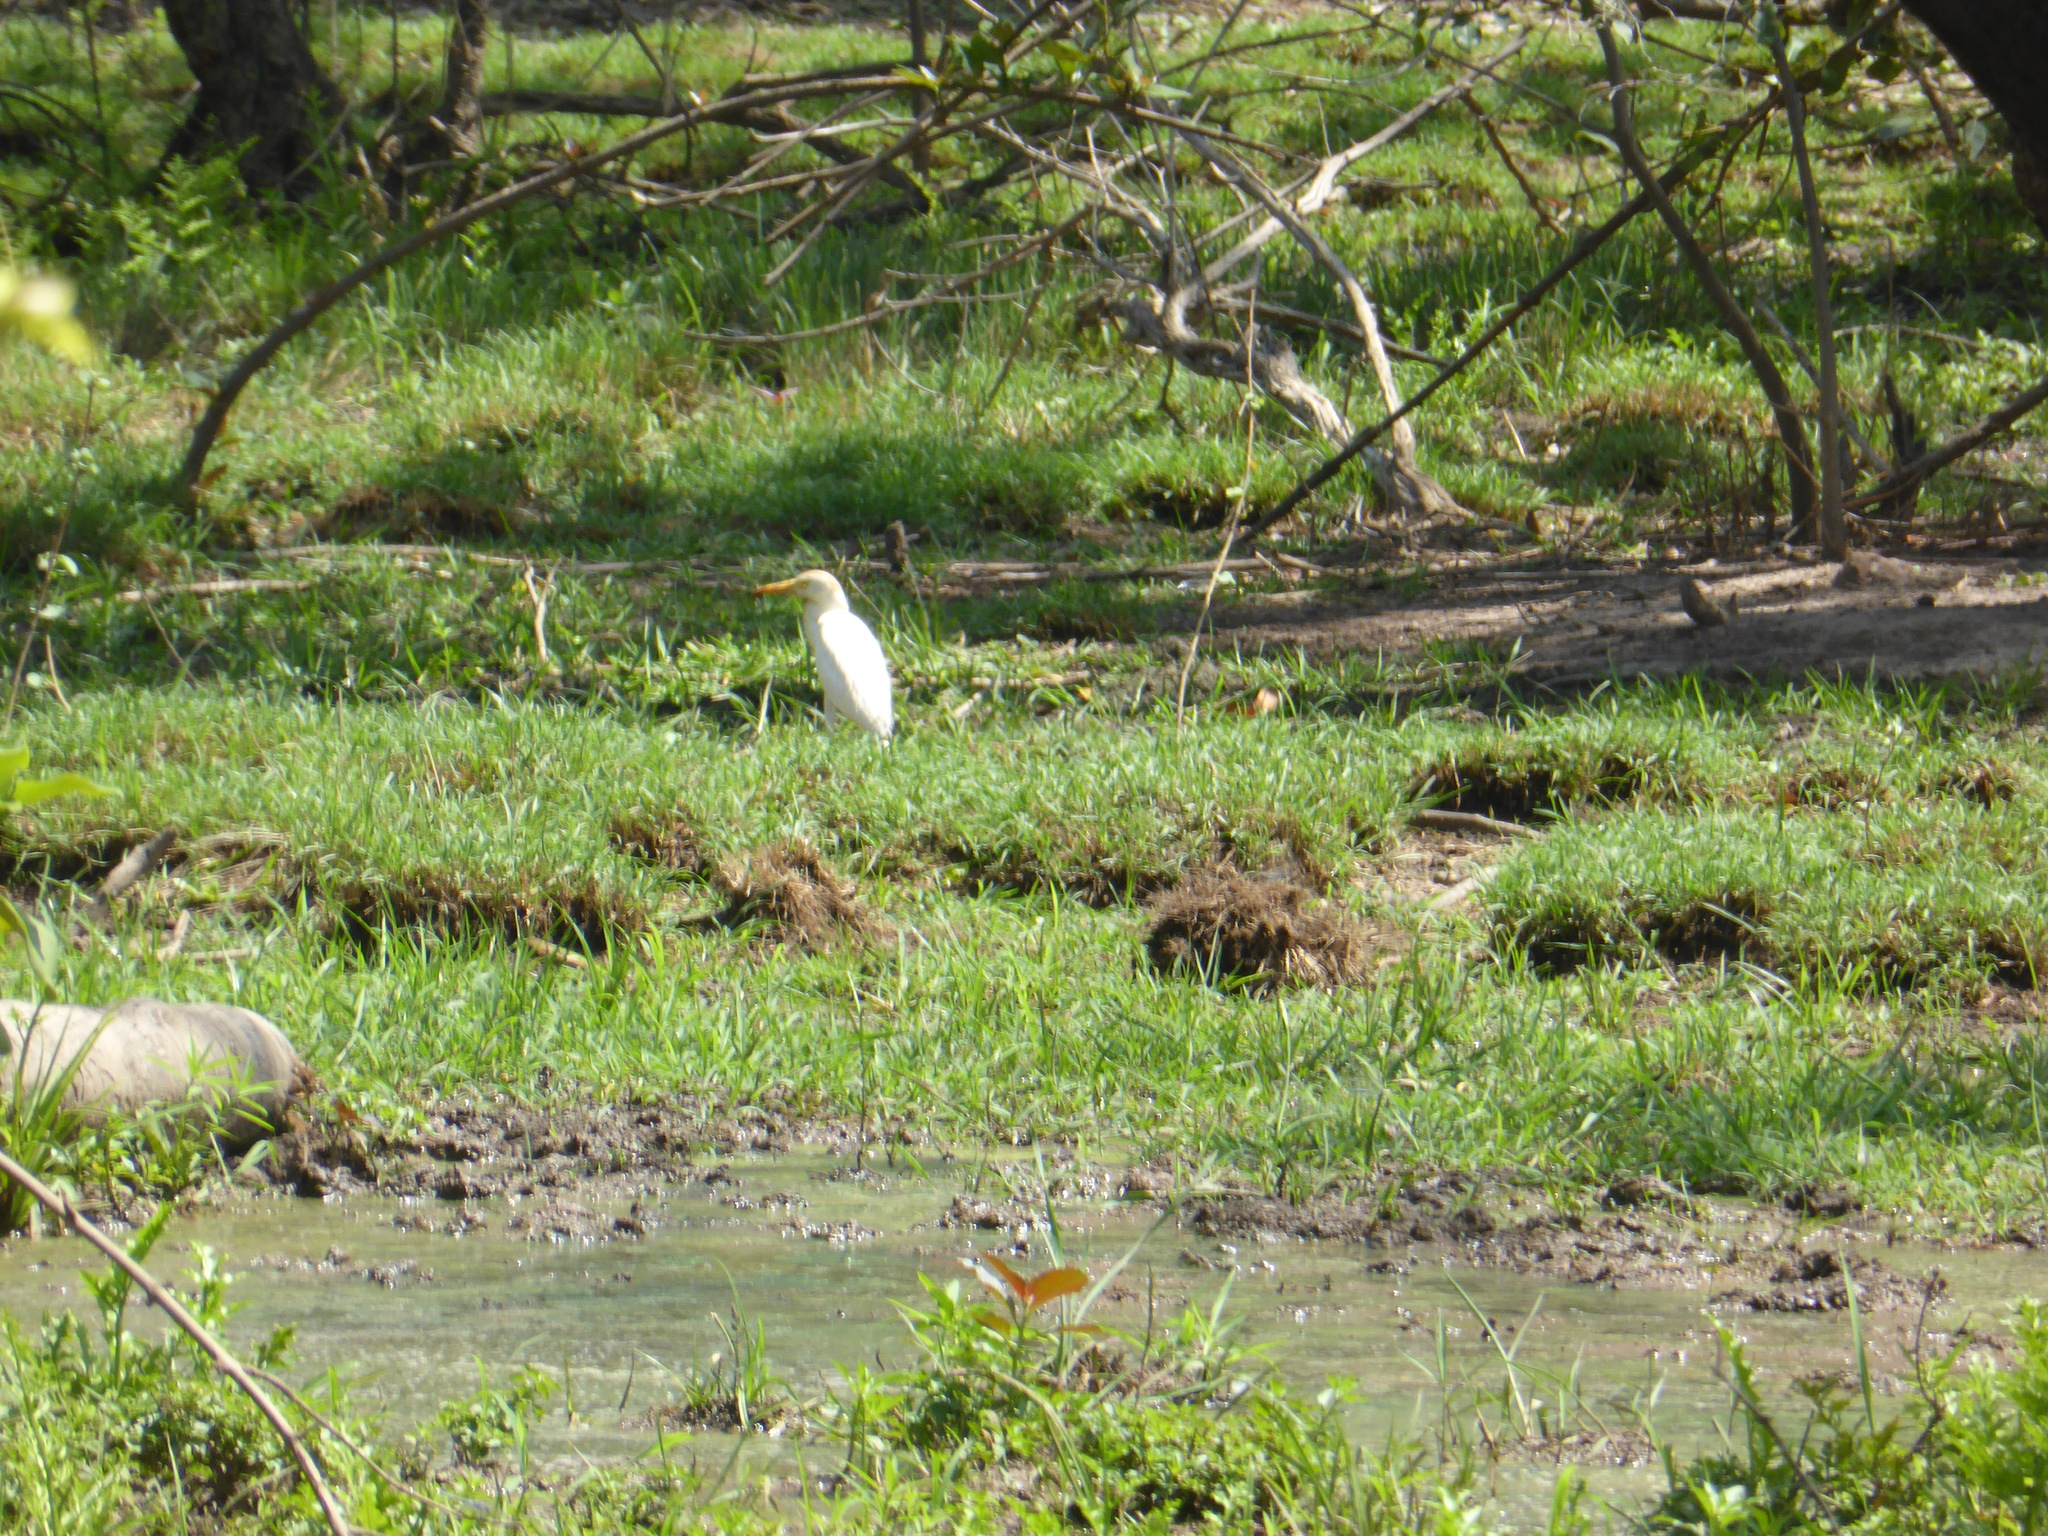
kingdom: Animalia
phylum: Chordata
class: Aves
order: Pelecaniformes
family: Ardeidae
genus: Bubulcus
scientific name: Bubulcus ibis
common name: Cattle egret
